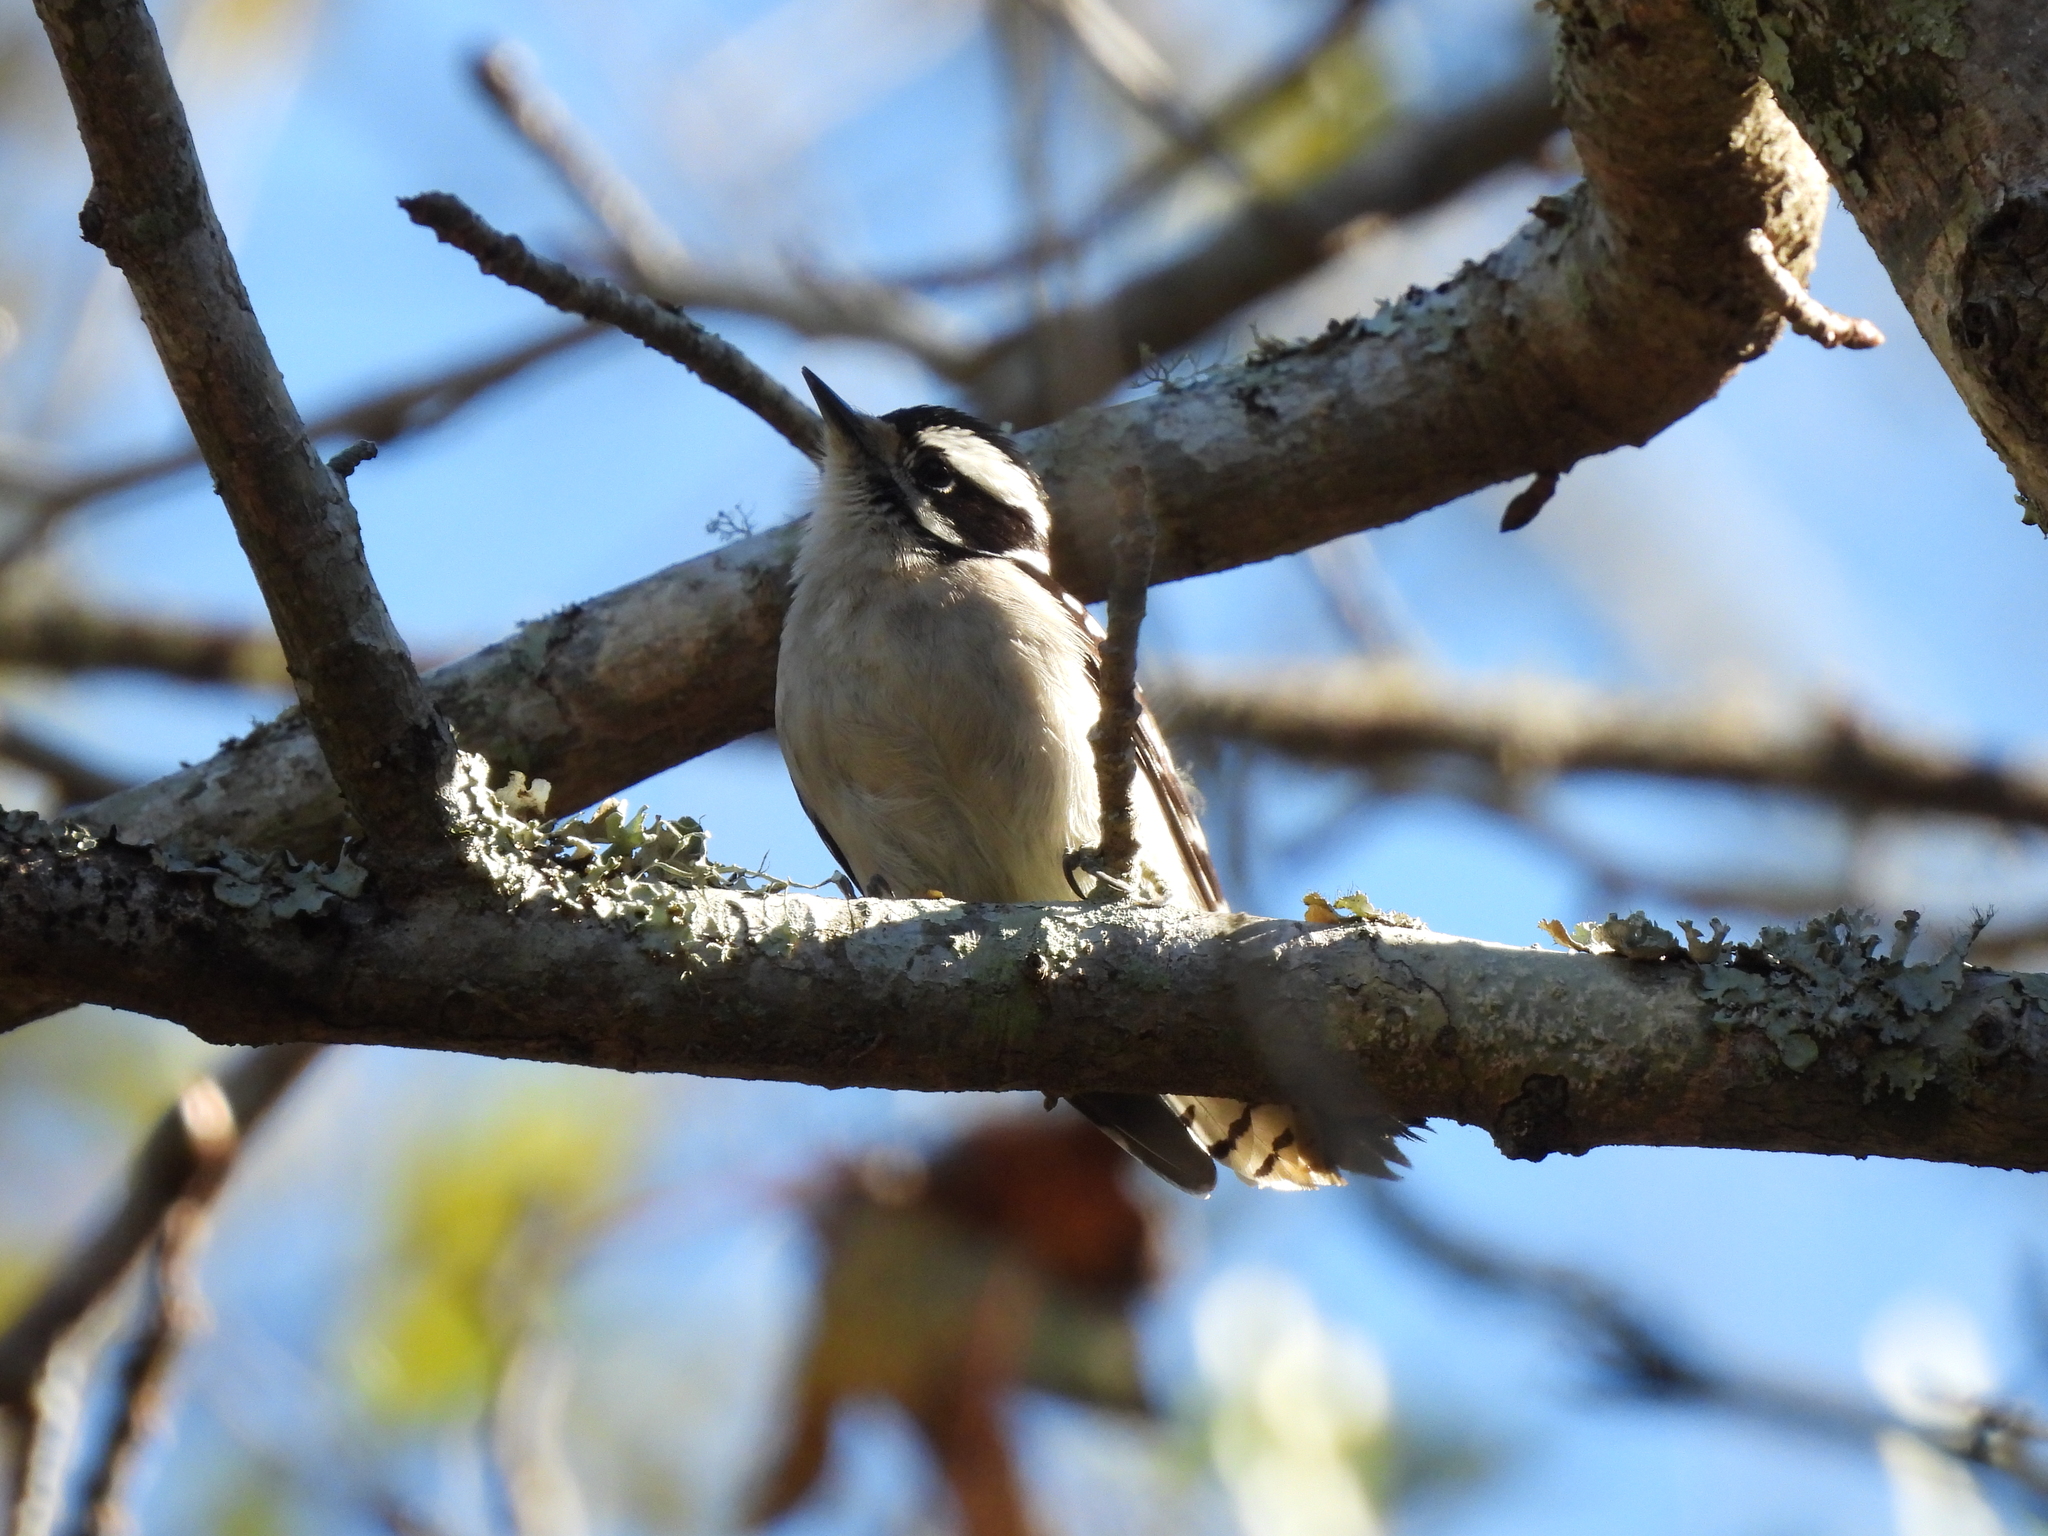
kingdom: Animalia
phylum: Chordata
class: Aves
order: Piciformes
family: Picidae
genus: Dryobates
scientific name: Dryobates pubescens
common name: Downy woodpecker
